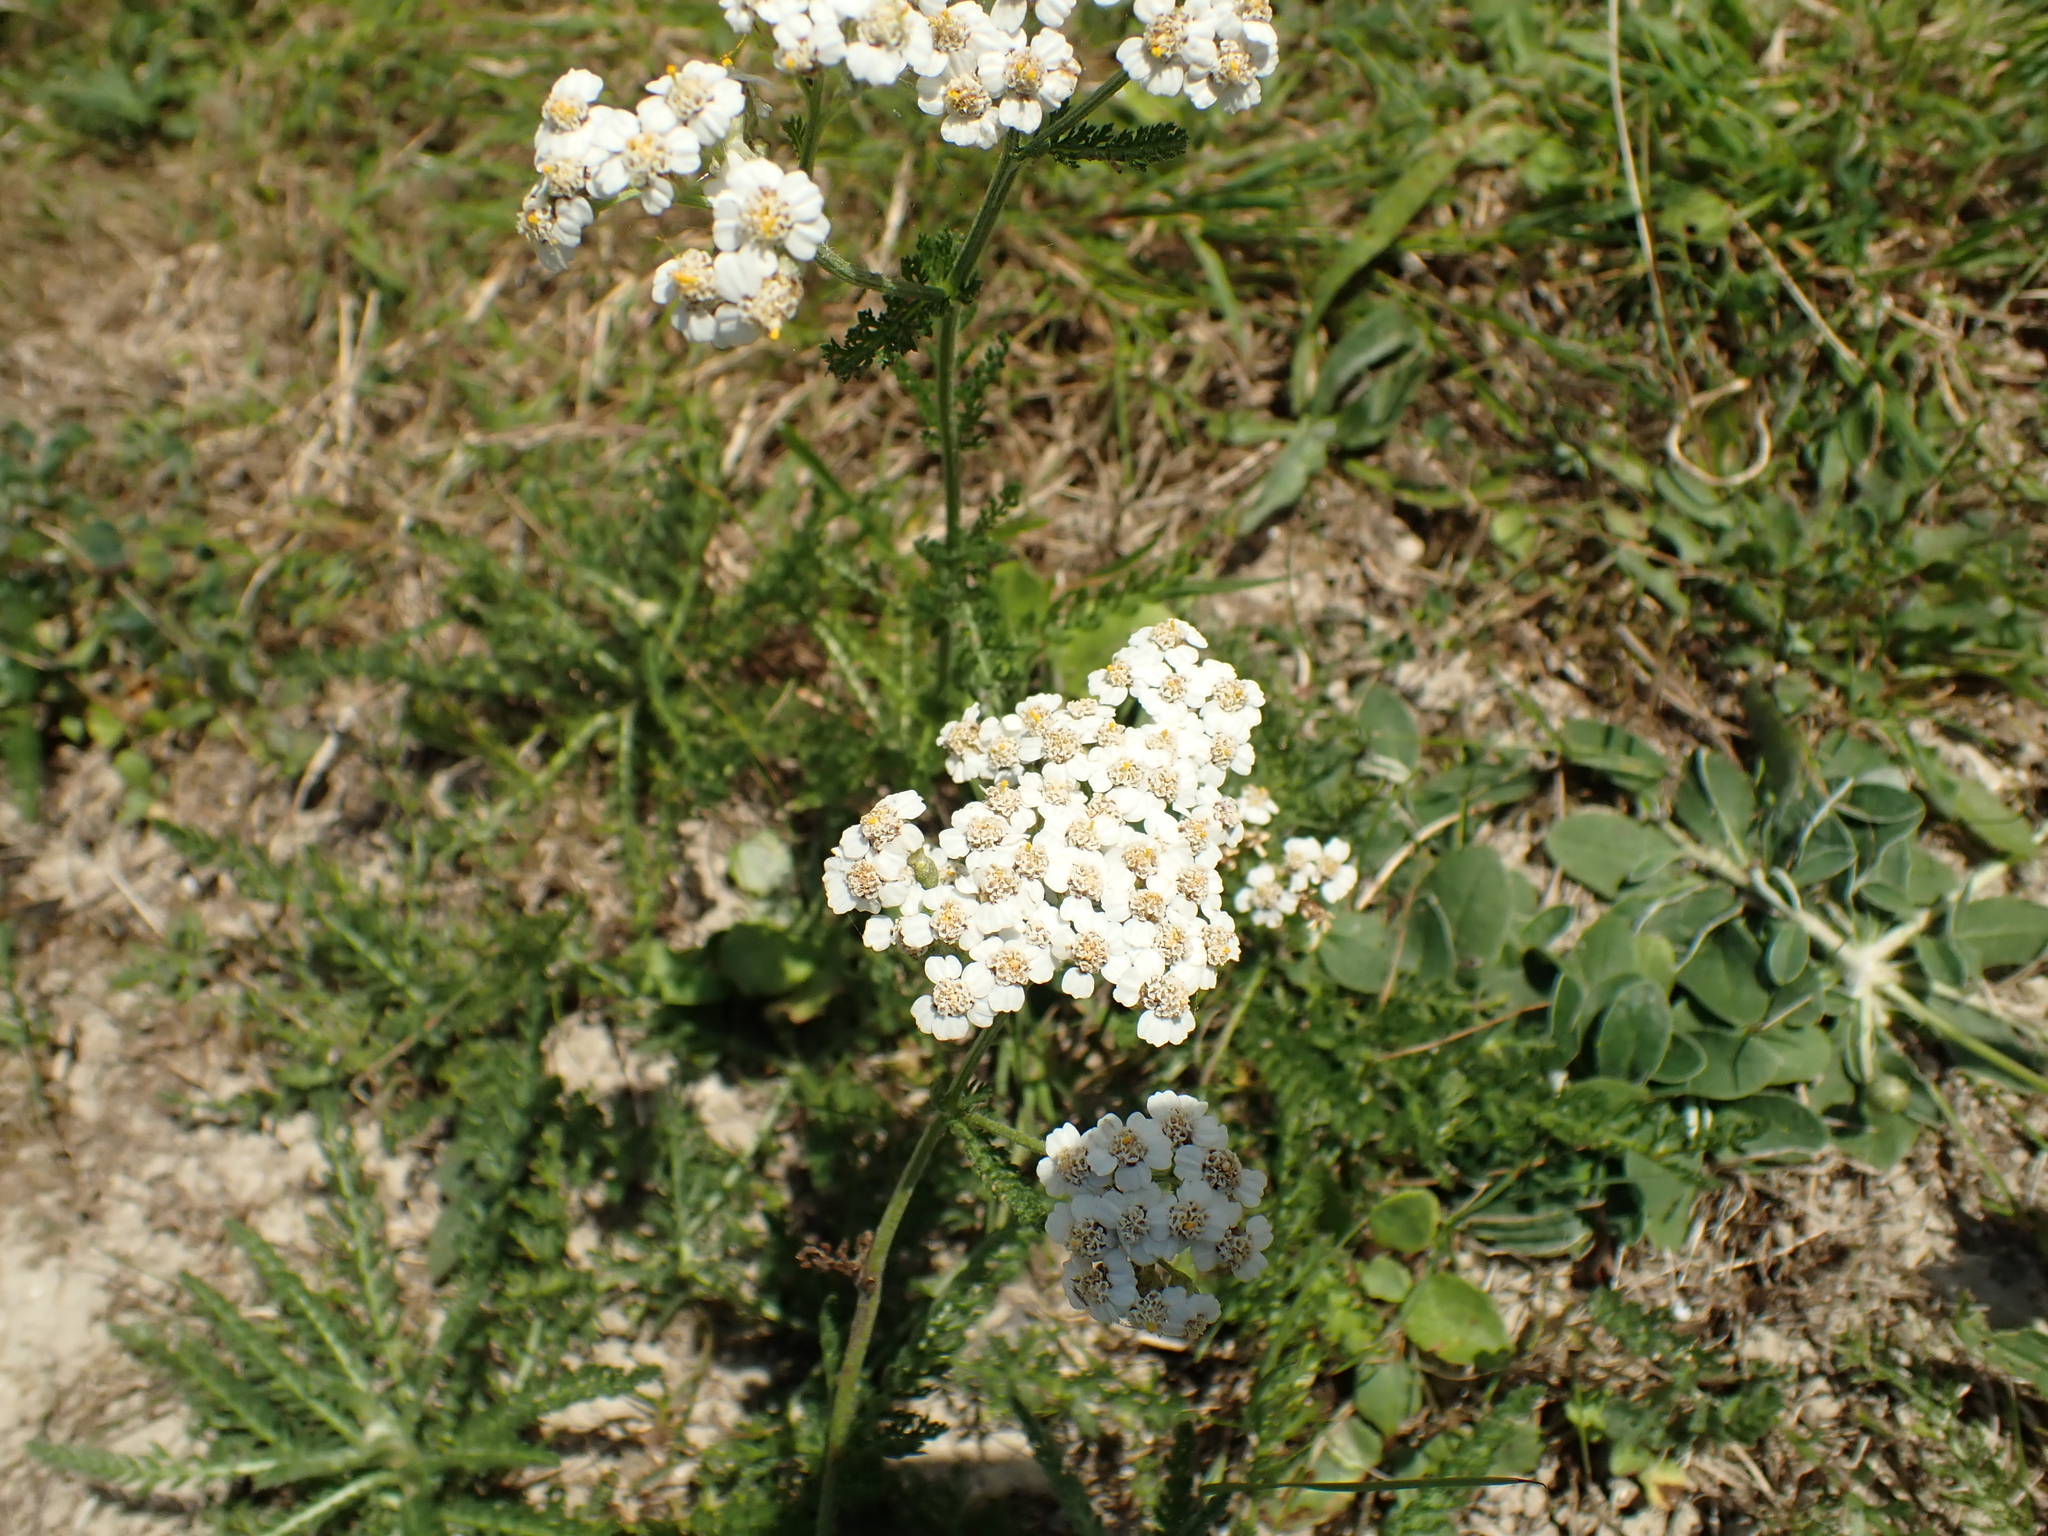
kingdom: Plantae
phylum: Tracheophyta
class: Magnoliopsida
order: Asterales
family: Asteraceae
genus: Achillea
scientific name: Achillea millefolium
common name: Yarrow
